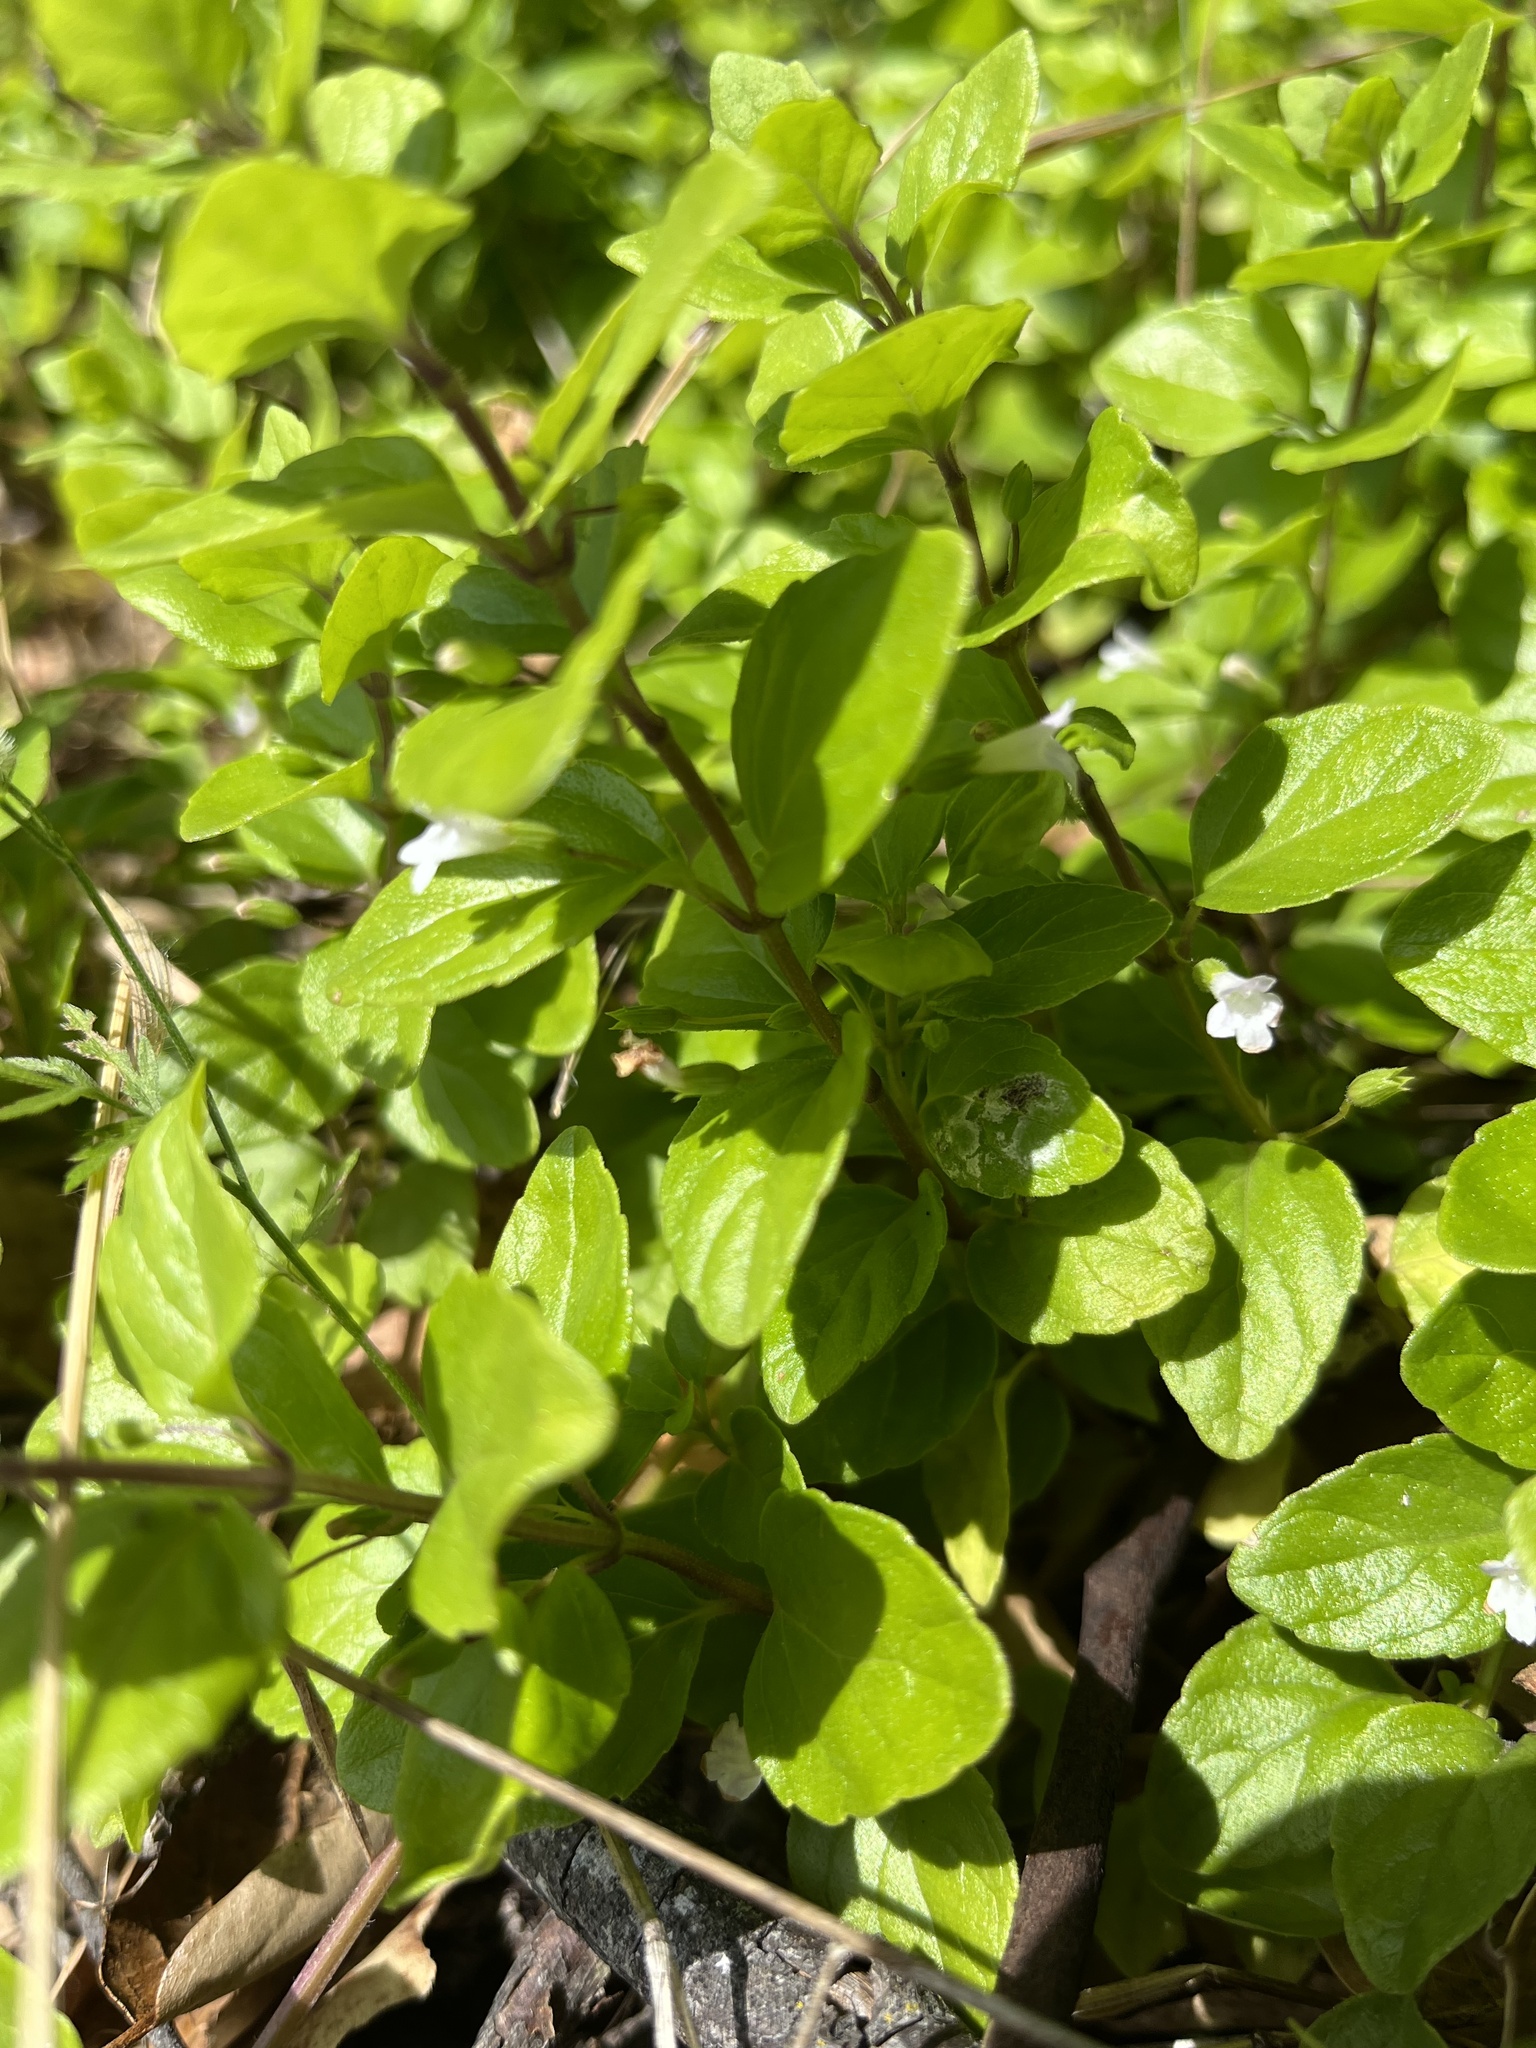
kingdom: Plantae
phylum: Tracheophyta
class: Magnoliopsida
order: Lamiales
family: Lamiaceae
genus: Micromeria
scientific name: Micromeria douglasii
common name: Yerba buena
